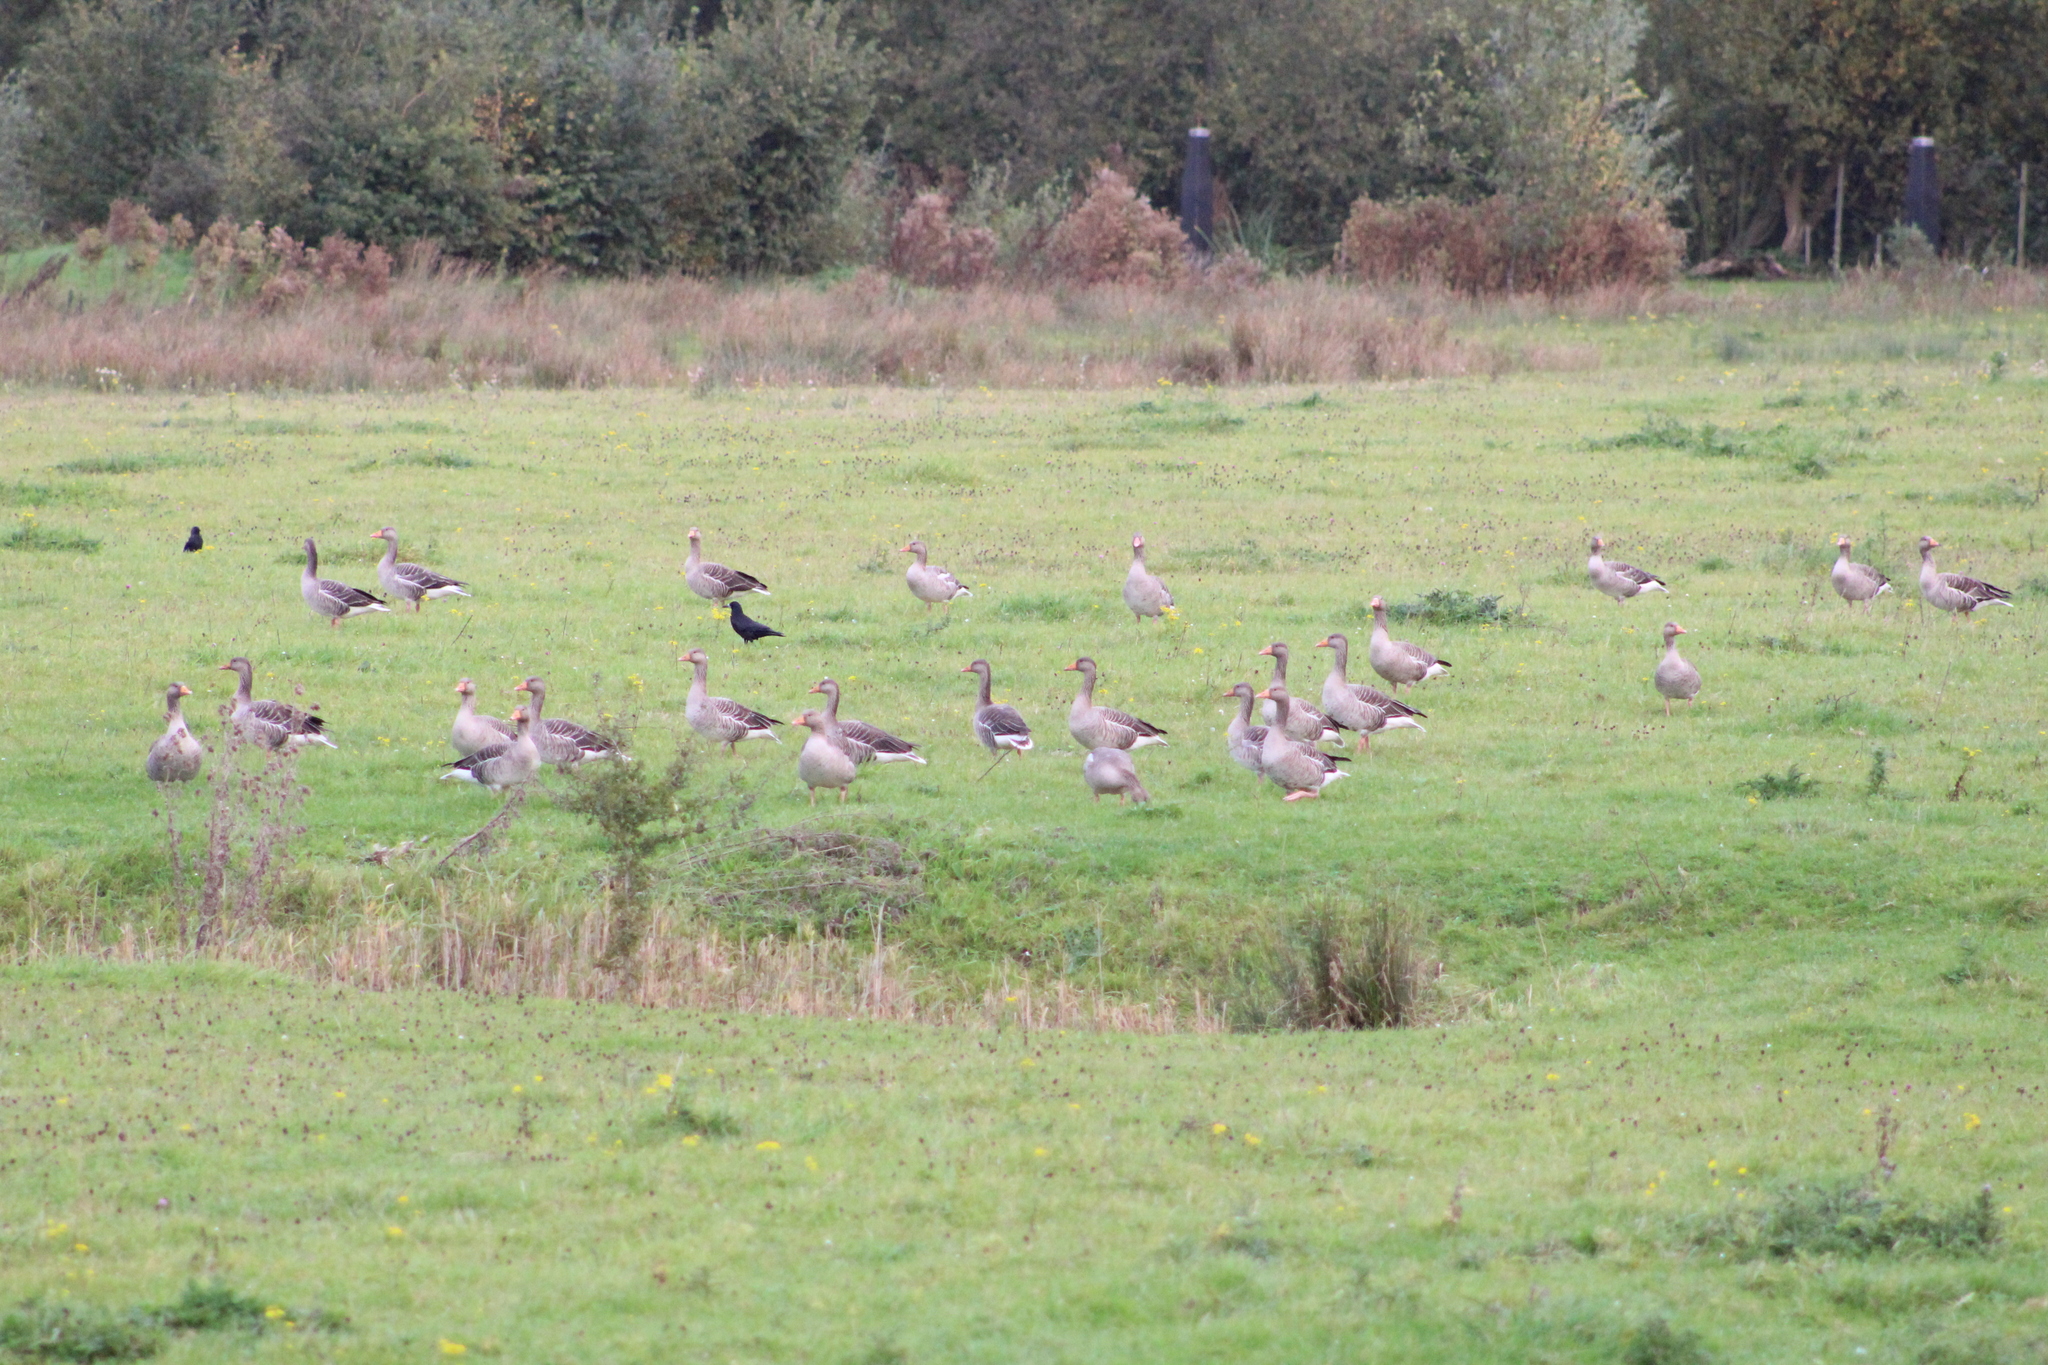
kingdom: Animalia
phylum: Chordata
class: Aves
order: Anseriformes
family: Anatidae
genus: Anser
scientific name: Anser anser
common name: Greylag goose
